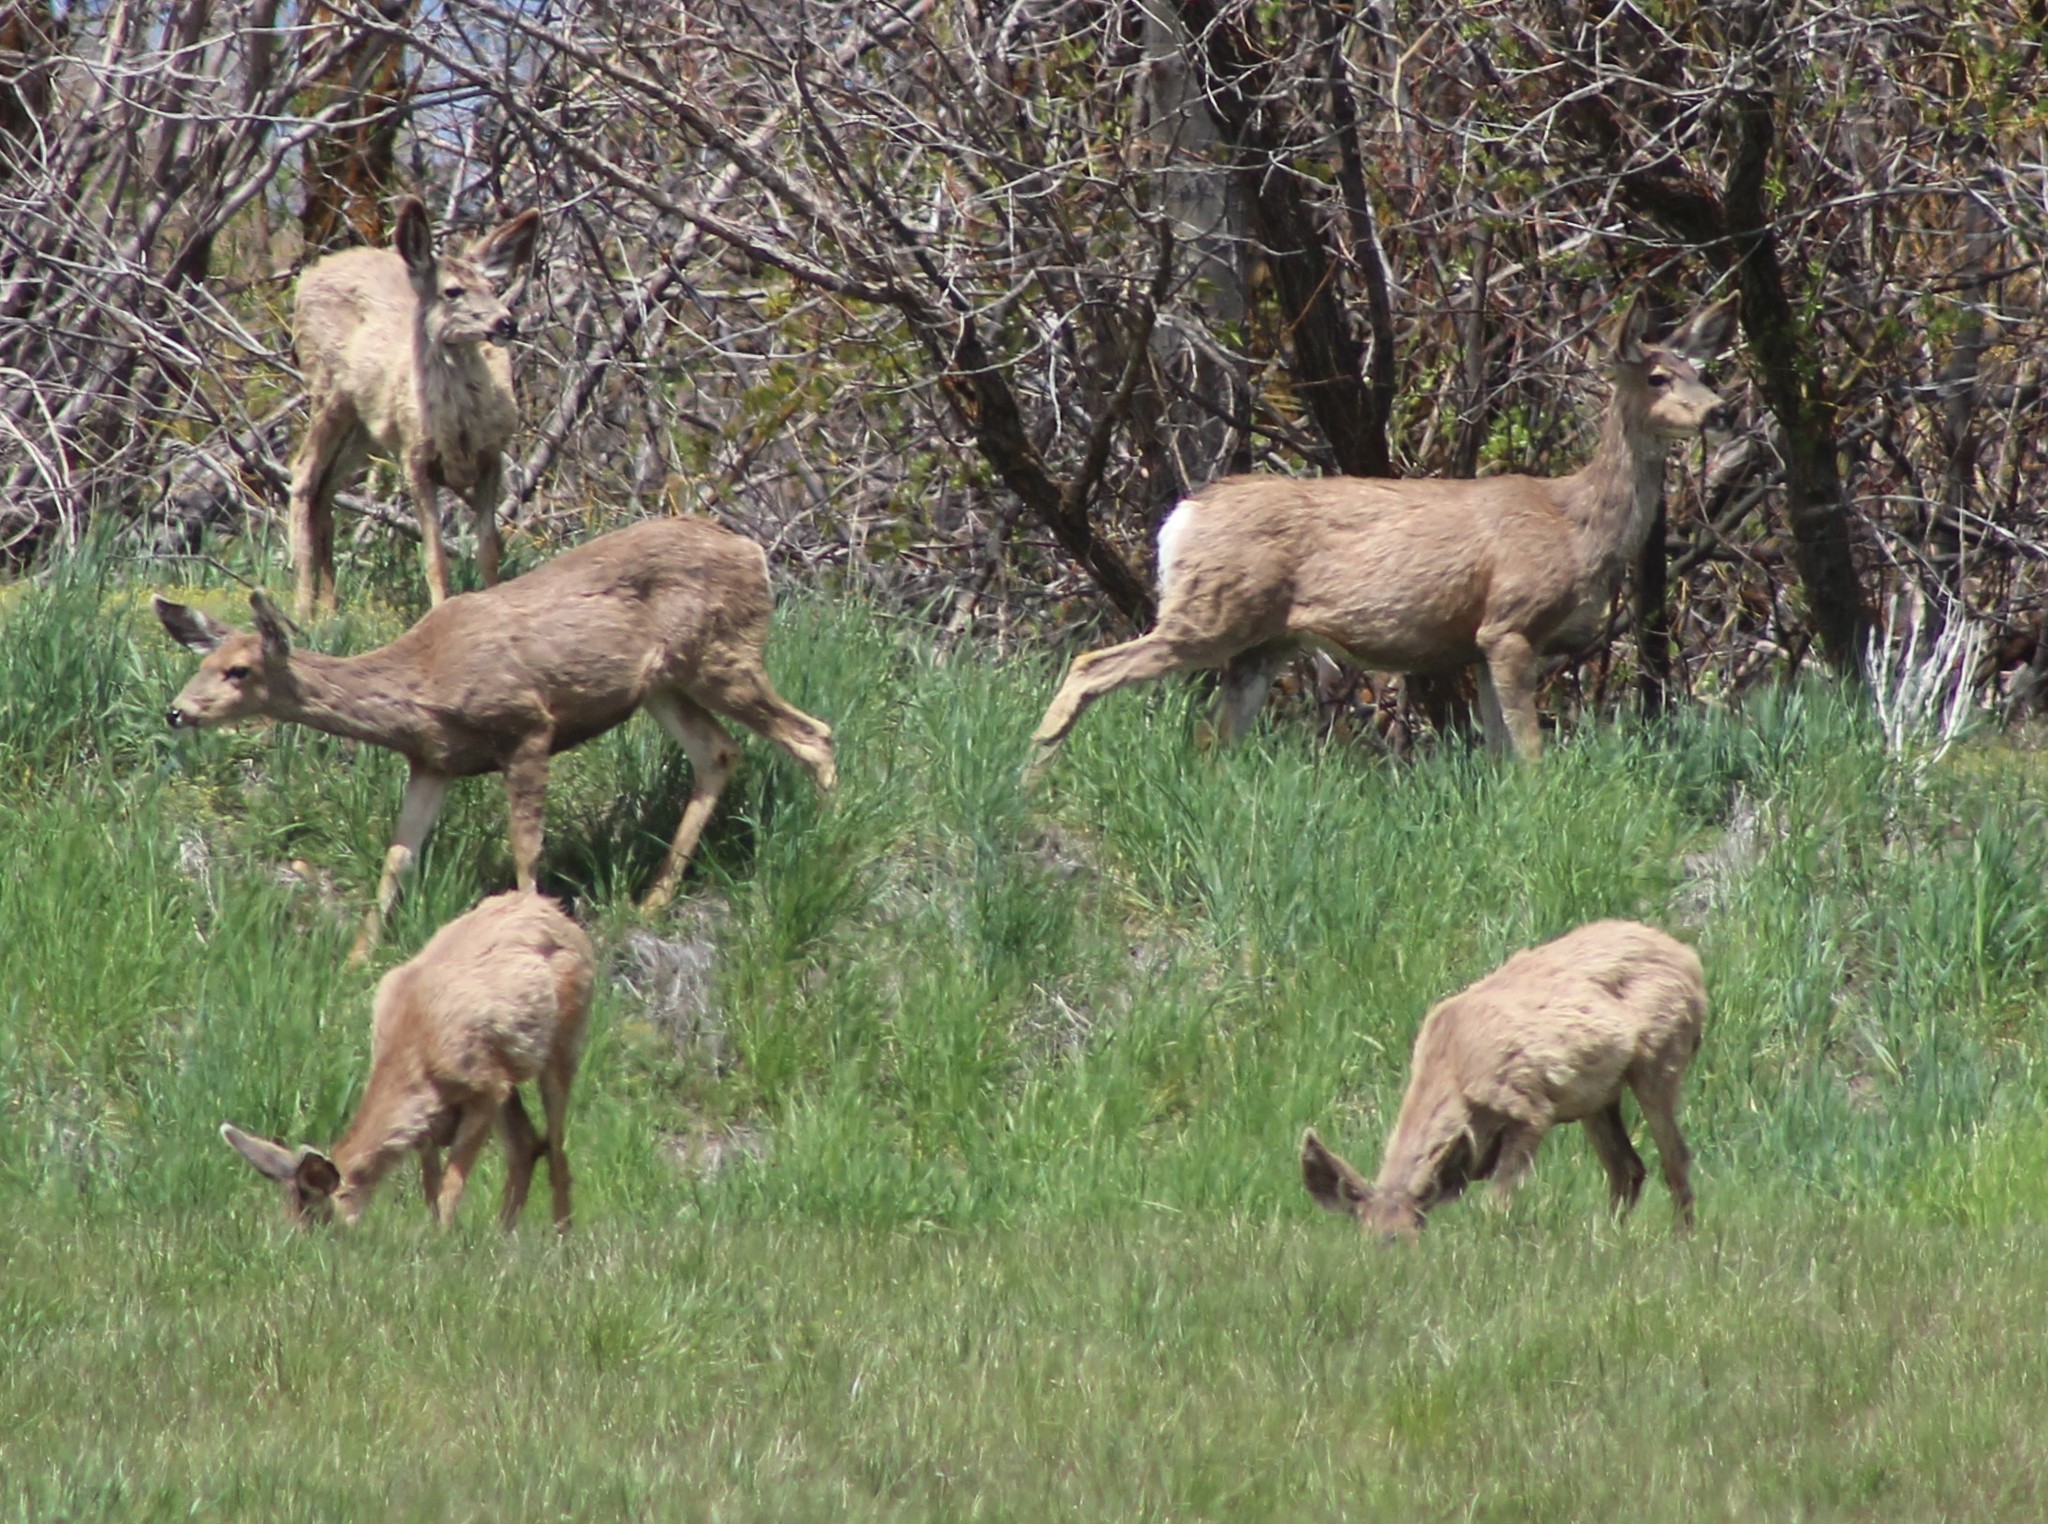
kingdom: Animalia
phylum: Chordata
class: Mammalia
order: Artiodactyla
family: Cervidae
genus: Odocoileus
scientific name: Odocoileus hemionus
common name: Mule deer
